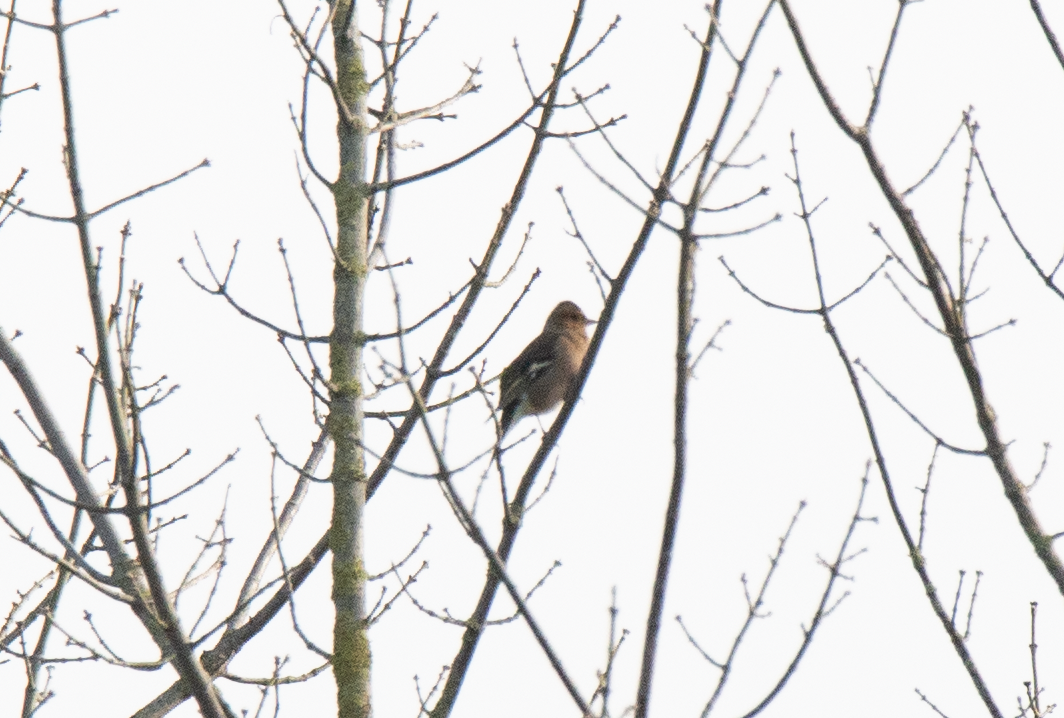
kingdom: Animalia
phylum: Chordata
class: Aves
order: Passeriformes
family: Fringillidae
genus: Fringilla
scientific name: Fringilla coelebs
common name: Common chaffinch
